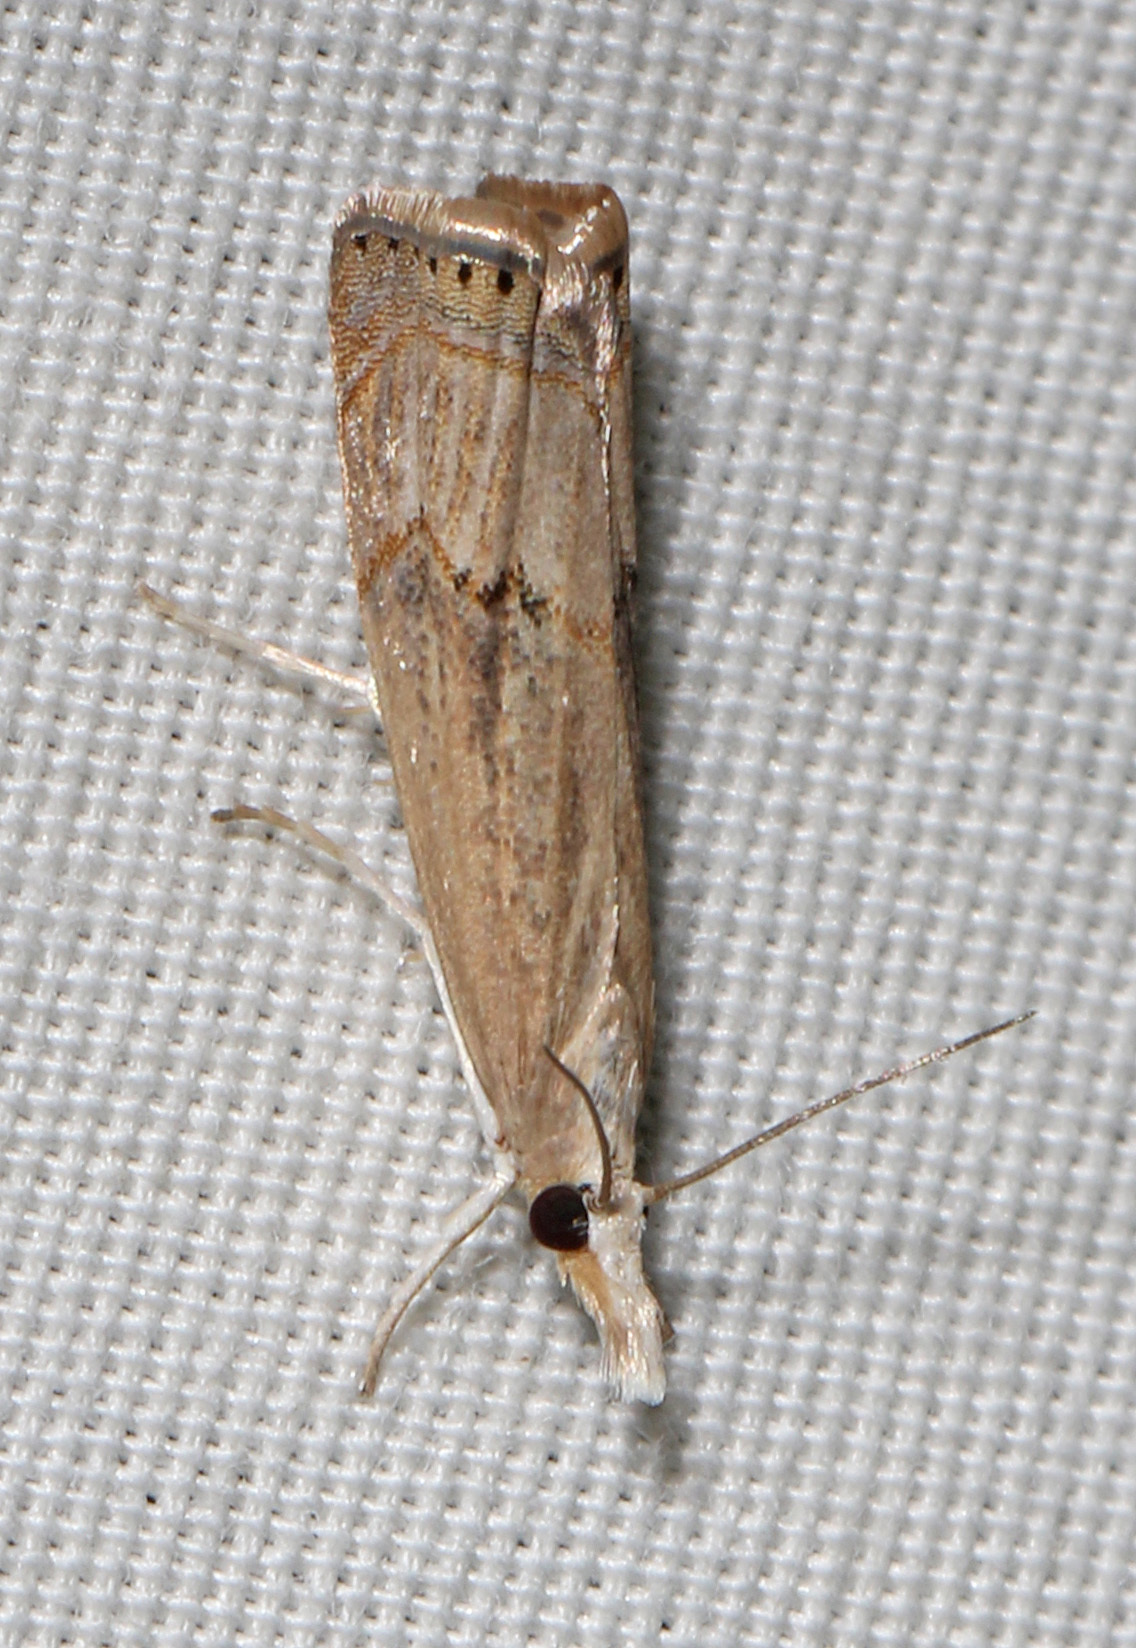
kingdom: Animalia
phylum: Arthropoda
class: Insecta
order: Lepidoptera
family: Crambidae
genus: Parapediasia
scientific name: Parapediasia teterellus
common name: Bluegrass webworm moth
